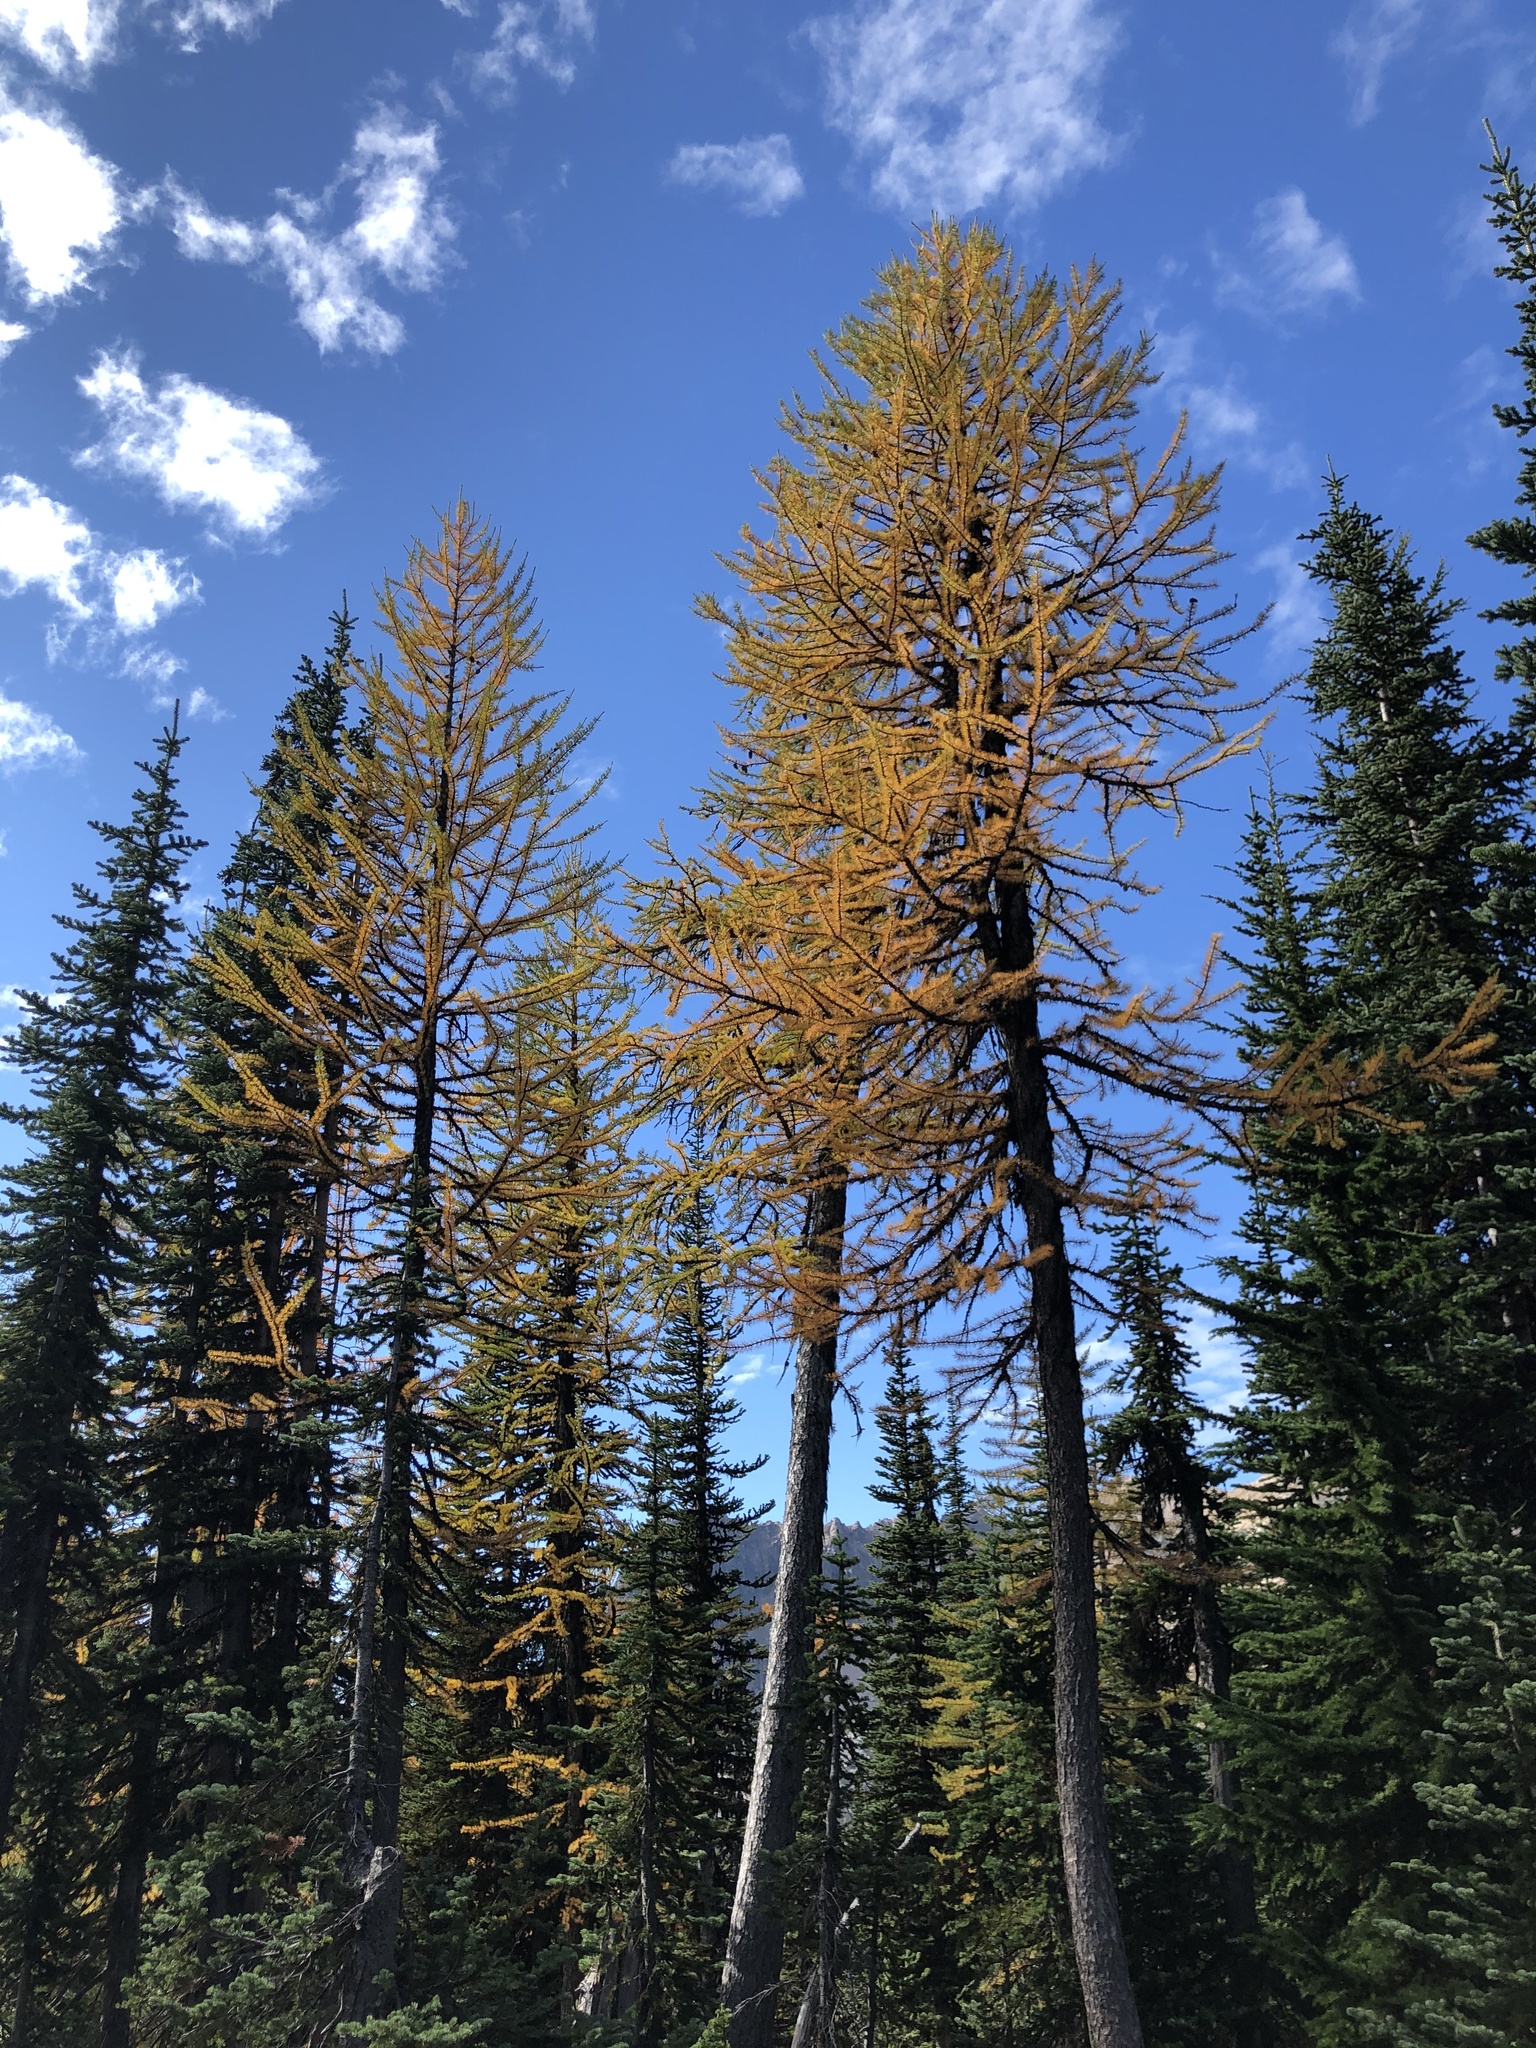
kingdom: Plantae
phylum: Tracheophyta
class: Pinopsida
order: Pinales
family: Pinaceae
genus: Larix
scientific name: Larix lyallii
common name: Alpine larch
